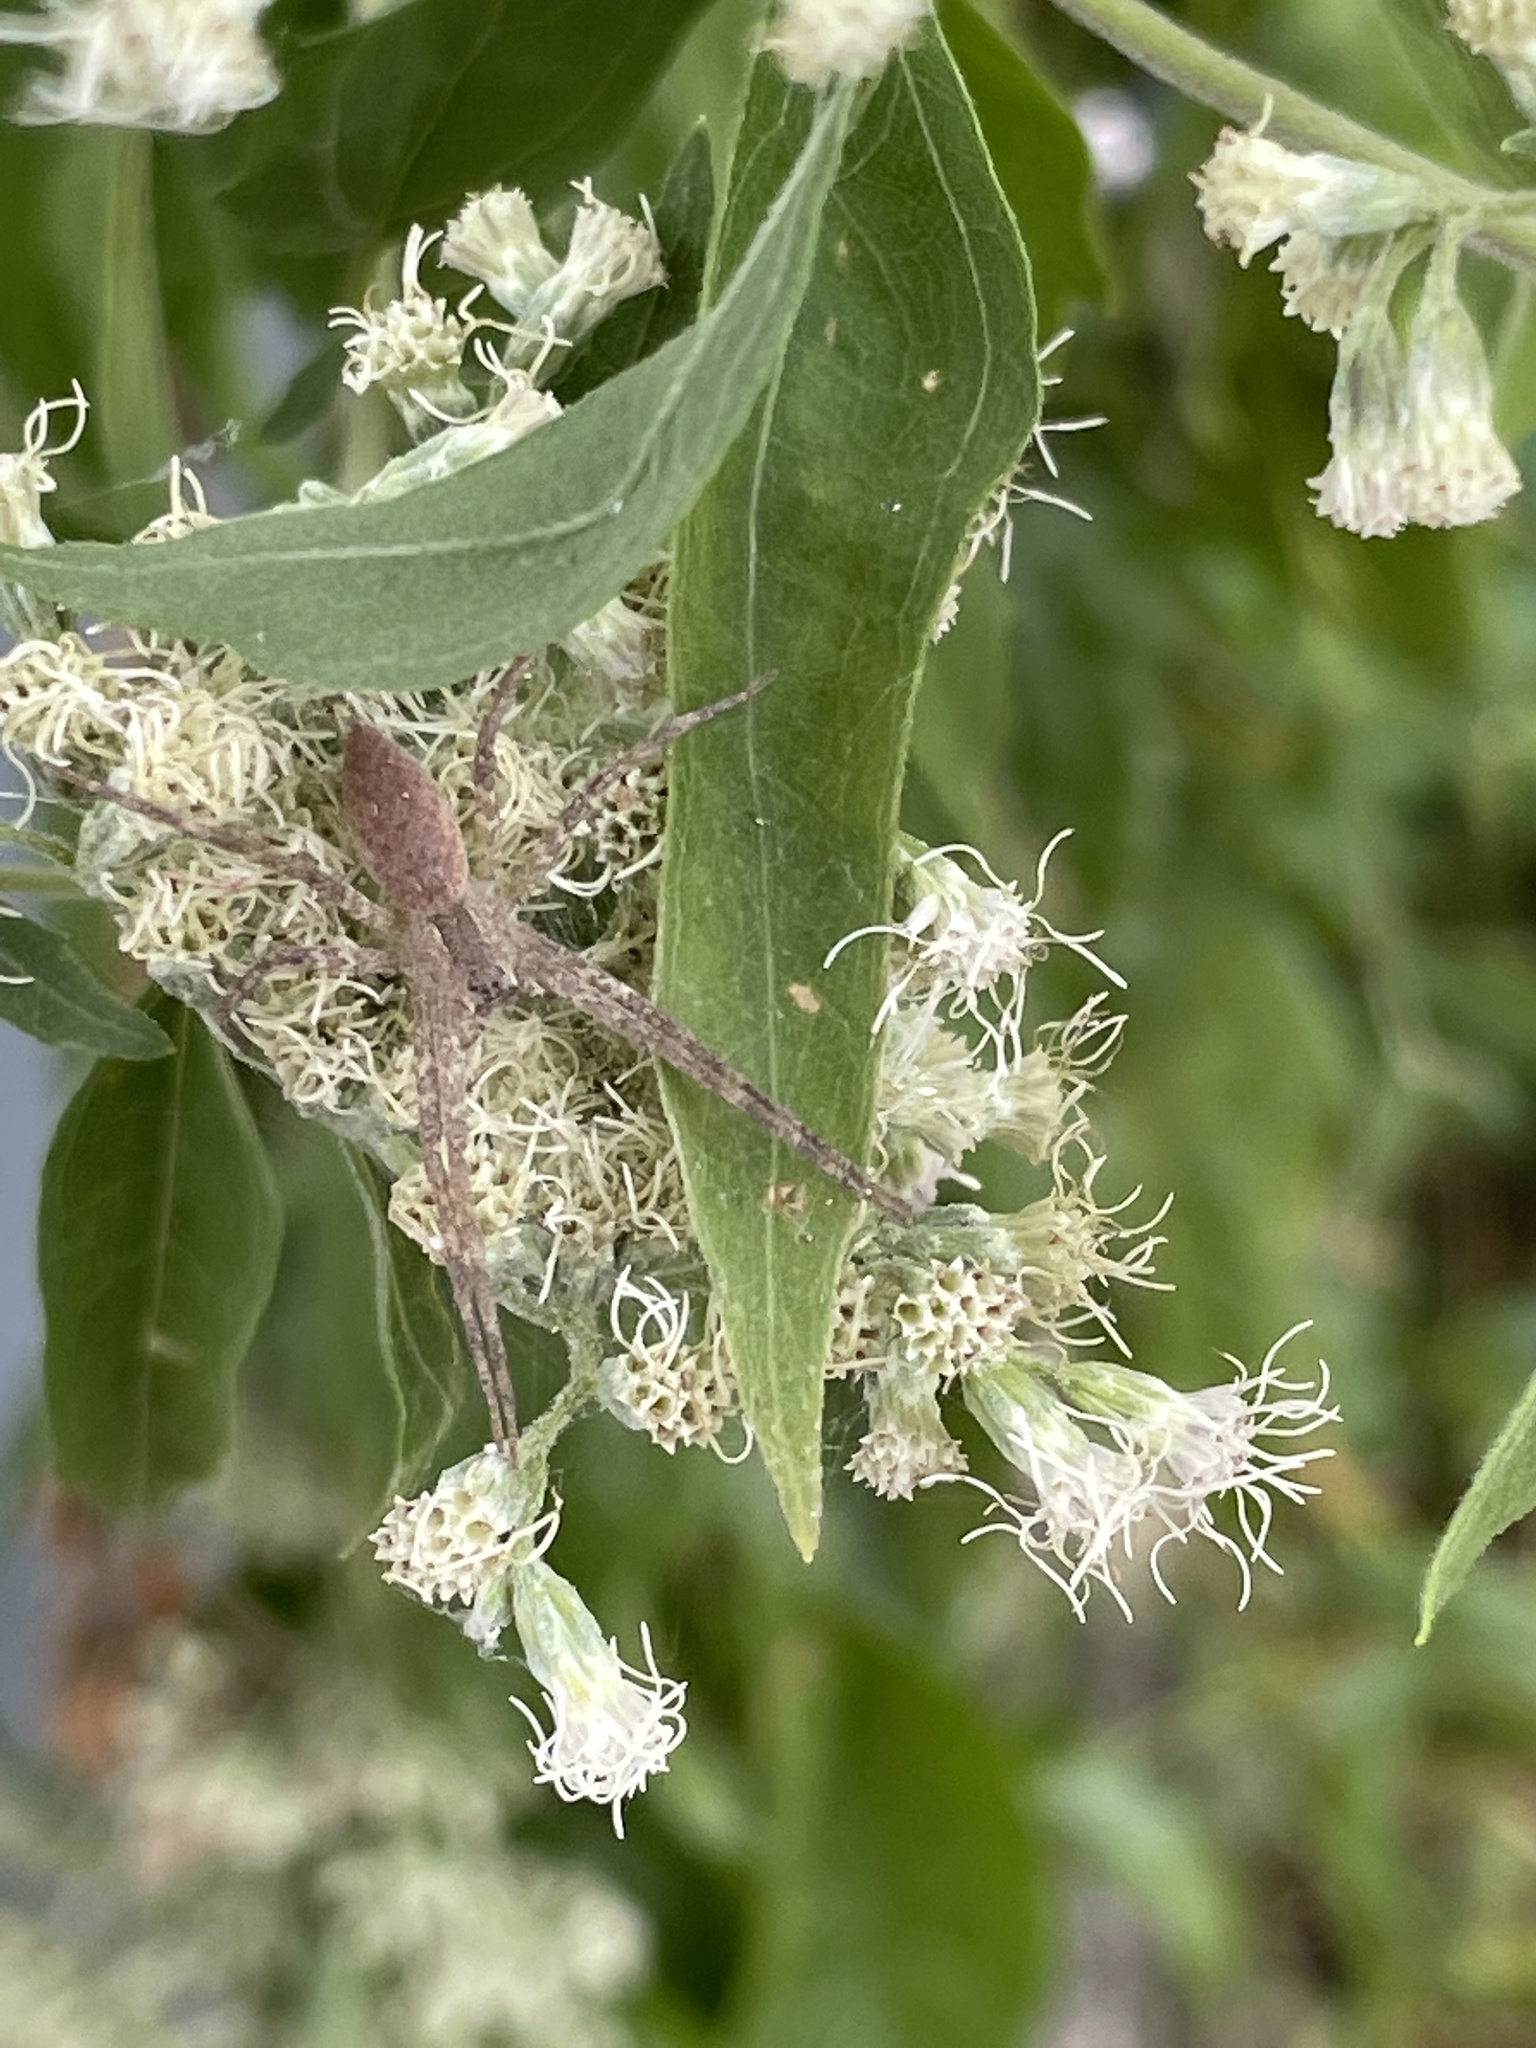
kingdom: Animalia
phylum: Arthropoda
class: Arachnida
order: Araneae
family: Pisauridae
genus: Pisaurina
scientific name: Pisaurina mira
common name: American nursery web spider
